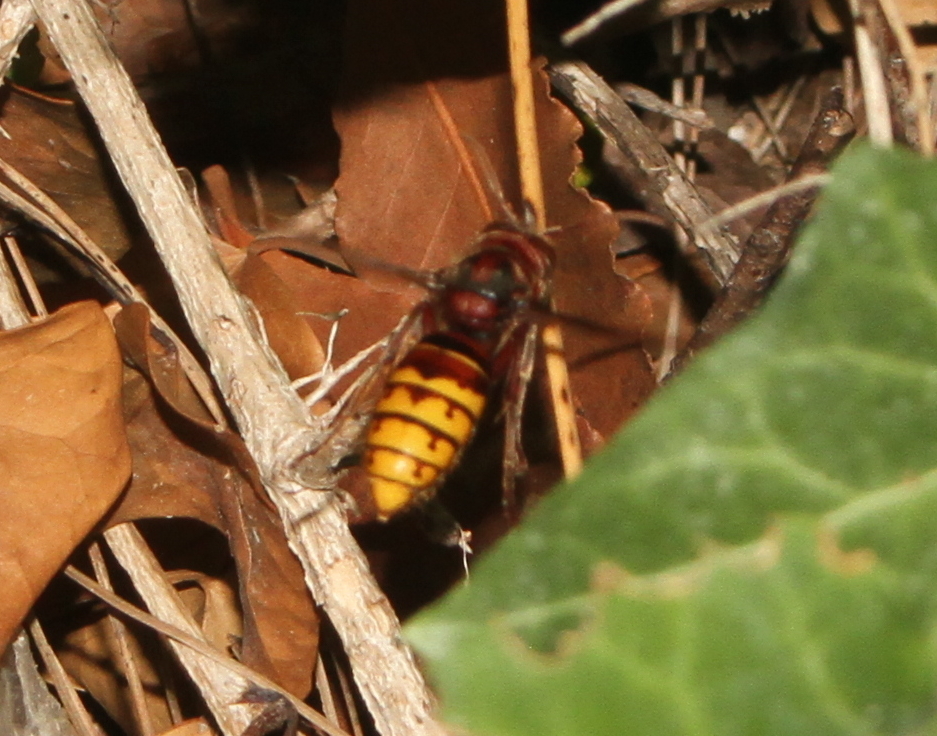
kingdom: Animalia
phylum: Arthropoda
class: Insecta
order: Hymenoptera
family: Vespidae
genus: Vespa
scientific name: Vespa crabro
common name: Hornet
